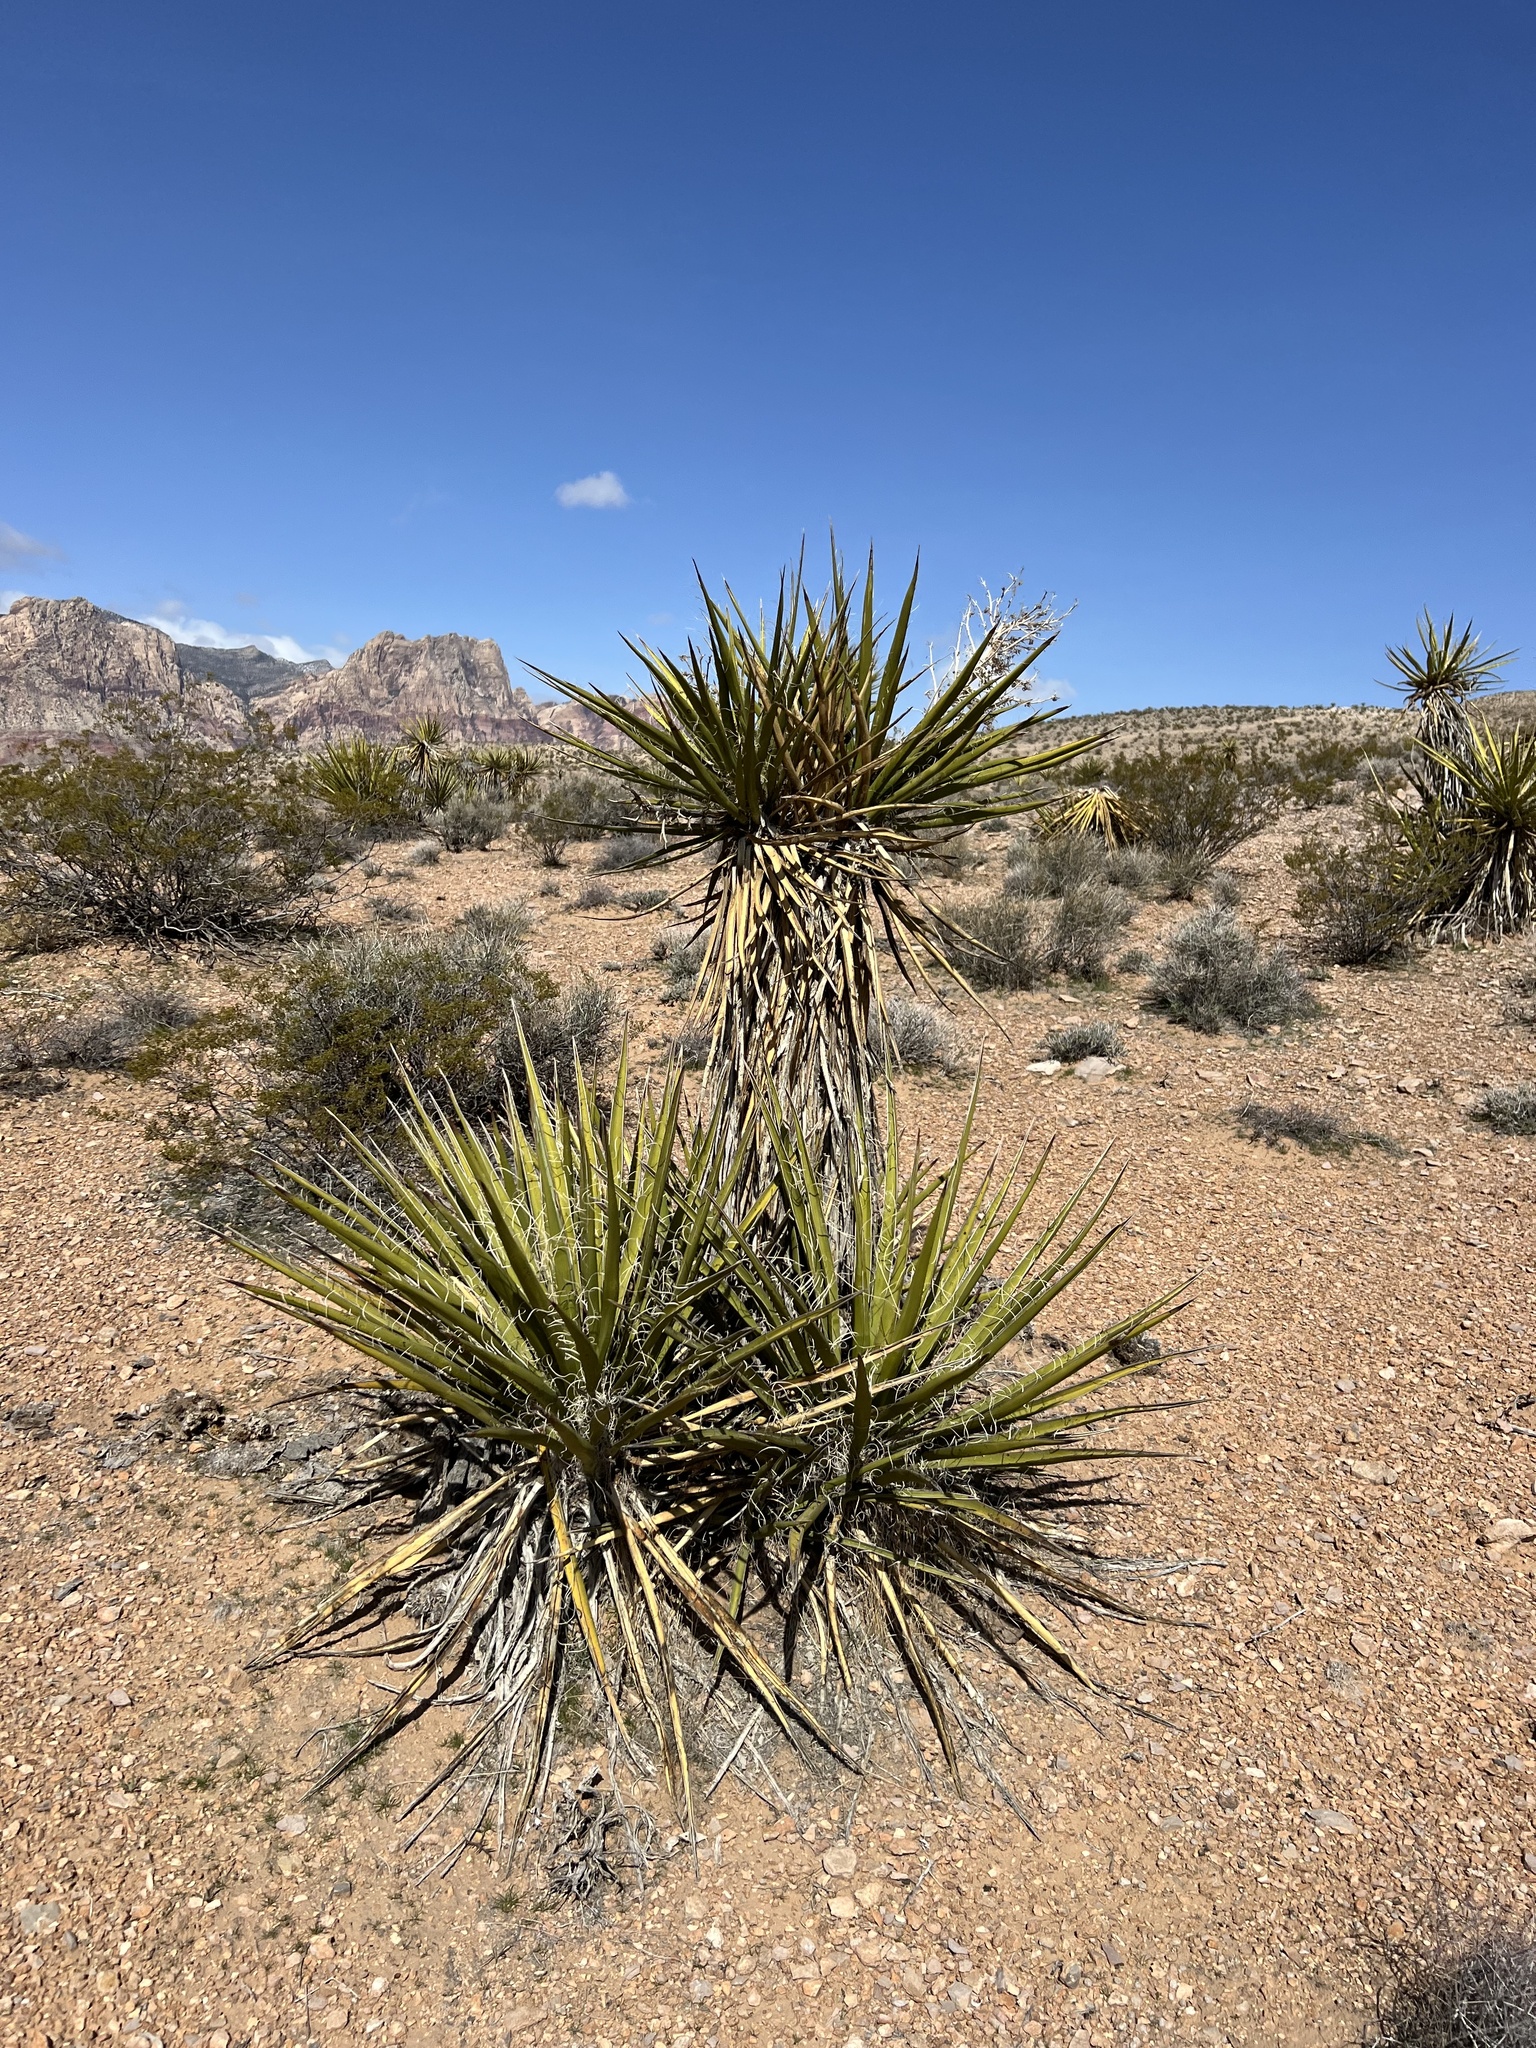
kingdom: Plantae
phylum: Tracheophyta
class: Liliopsida
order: Asparagales
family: Asparagaceae
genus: Yucca
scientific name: Yucca schidigera
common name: Mojave yucca
